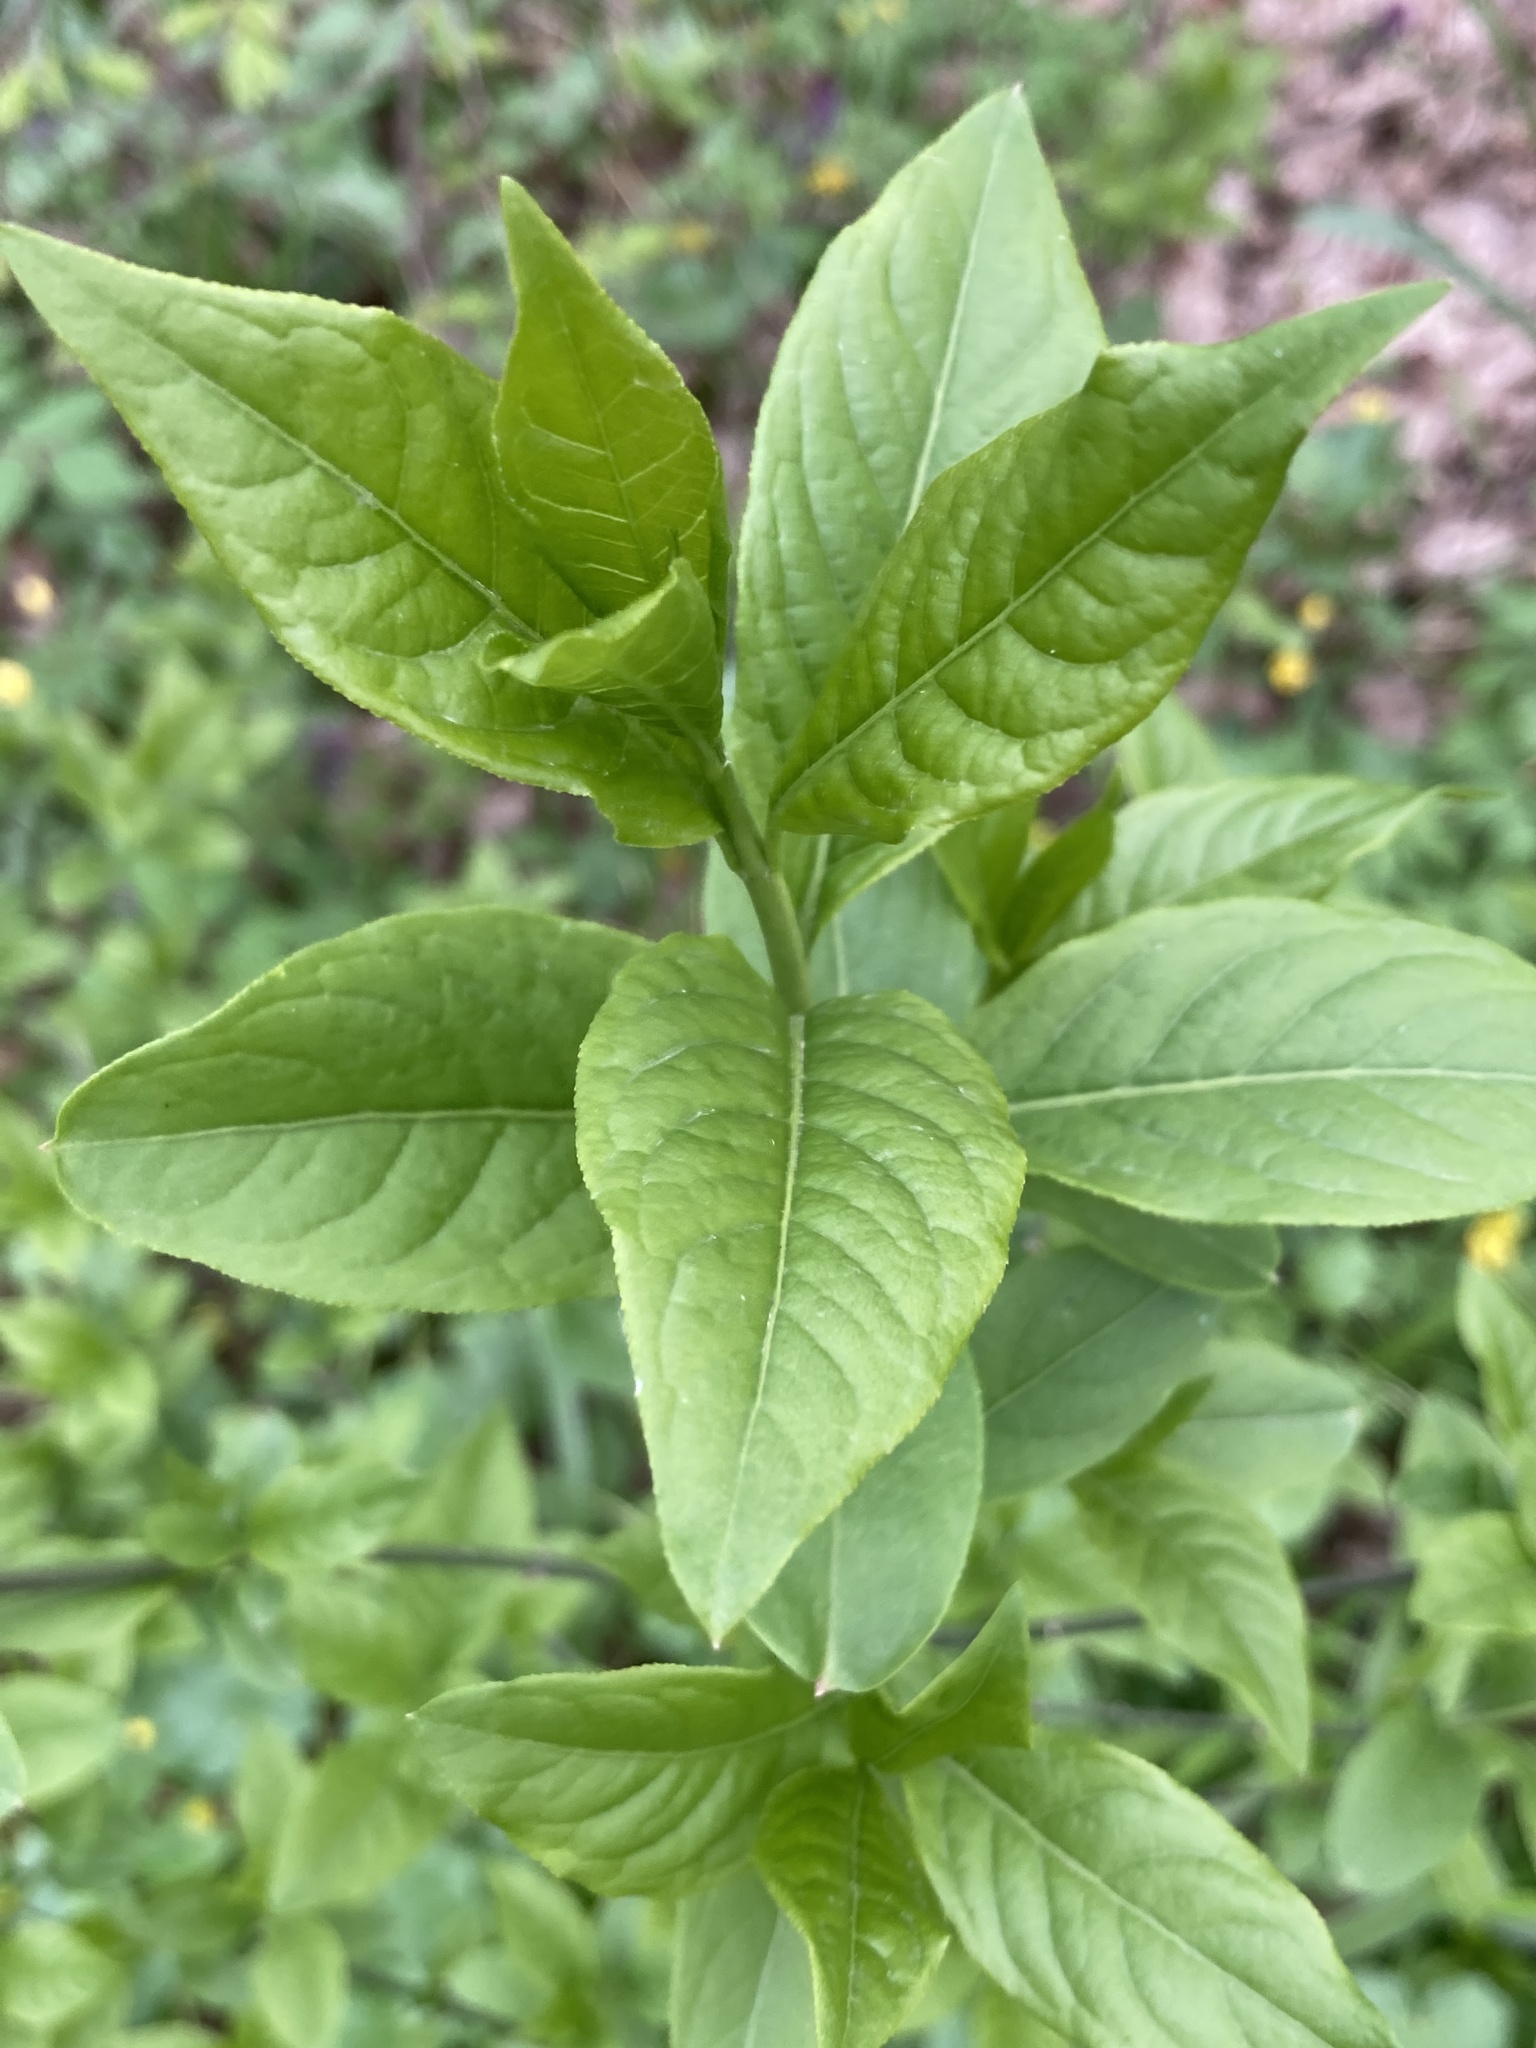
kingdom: Plantae
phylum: Tracheophyta
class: Magnoliopsida
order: Celastrales
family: Celastraceae
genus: Euonymus
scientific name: Euonymus europaeus
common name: Spindle
